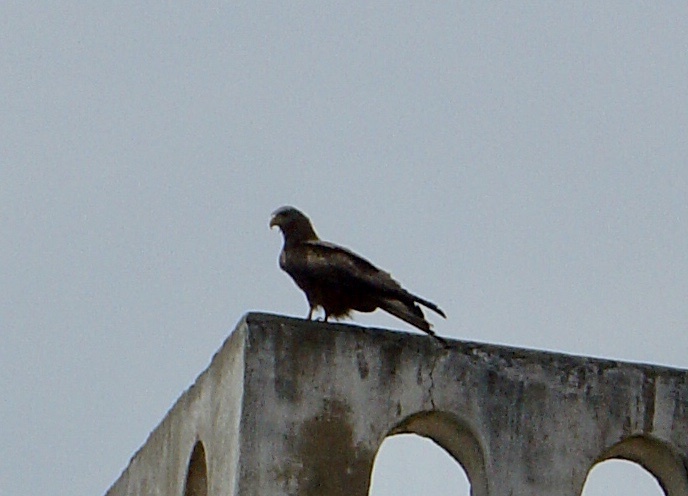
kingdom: Animalia
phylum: Chordata
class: Aves
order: Accipitriformes
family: Accipitridae
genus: Milvus
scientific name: Milvus migrans
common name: Black kite
